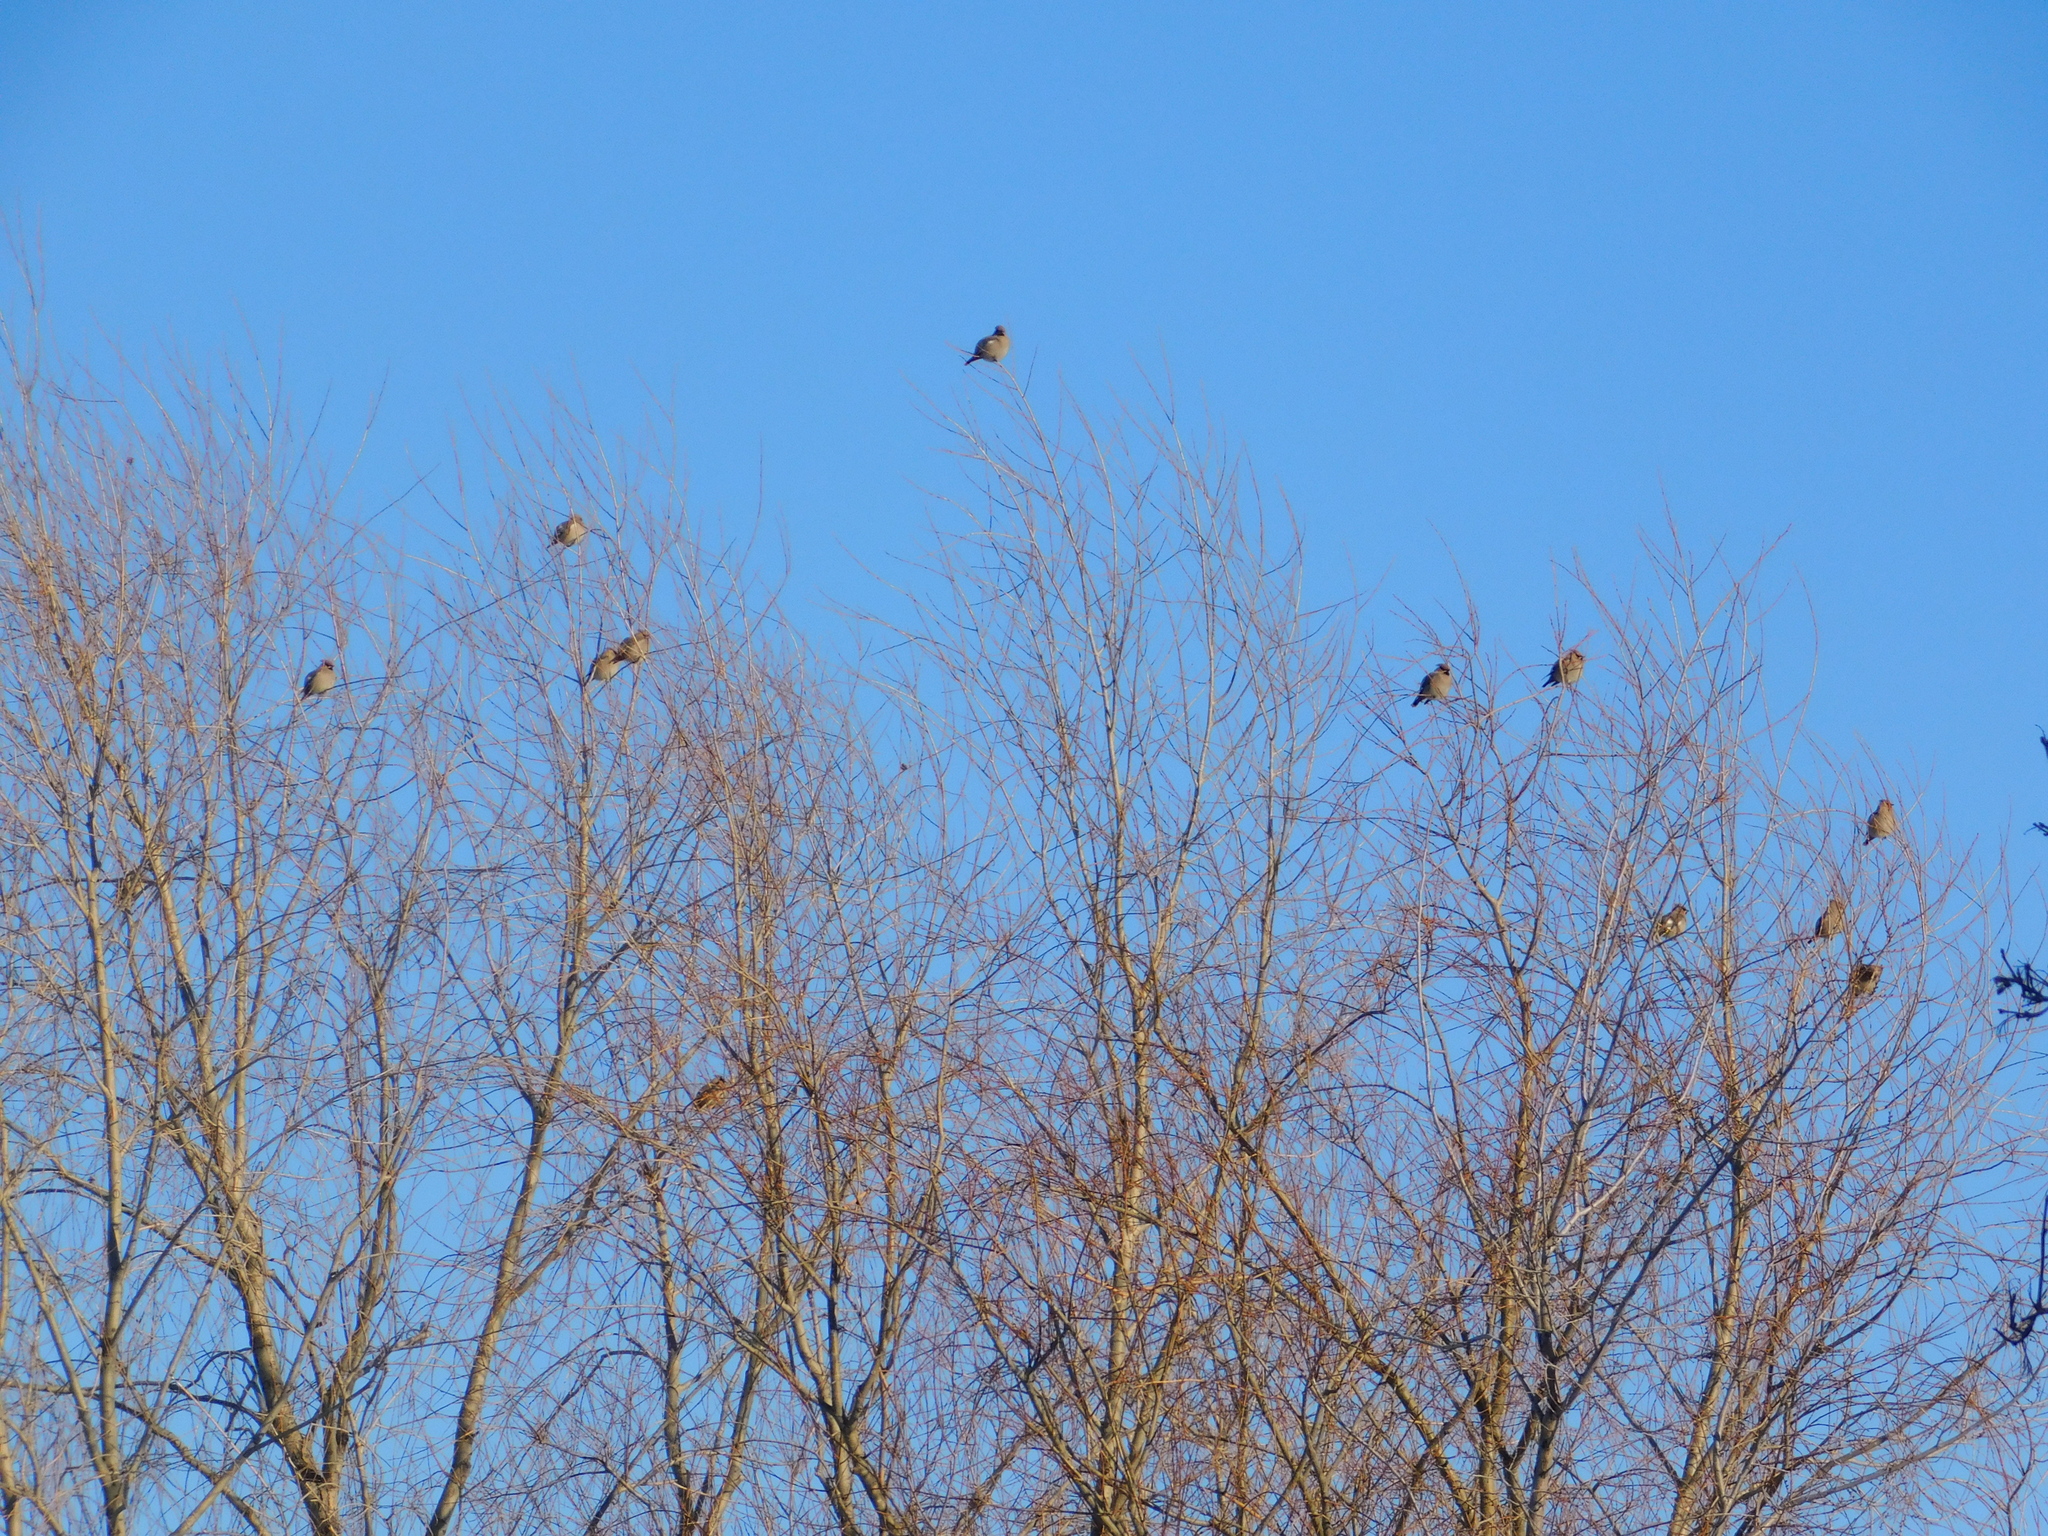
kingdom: Animalia
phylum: Chordata
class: Aves
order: Passeriformes
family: Bombycillidae
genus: Bombycilla
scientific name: Bombycilla garrulus
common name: Bohemian waxwing
